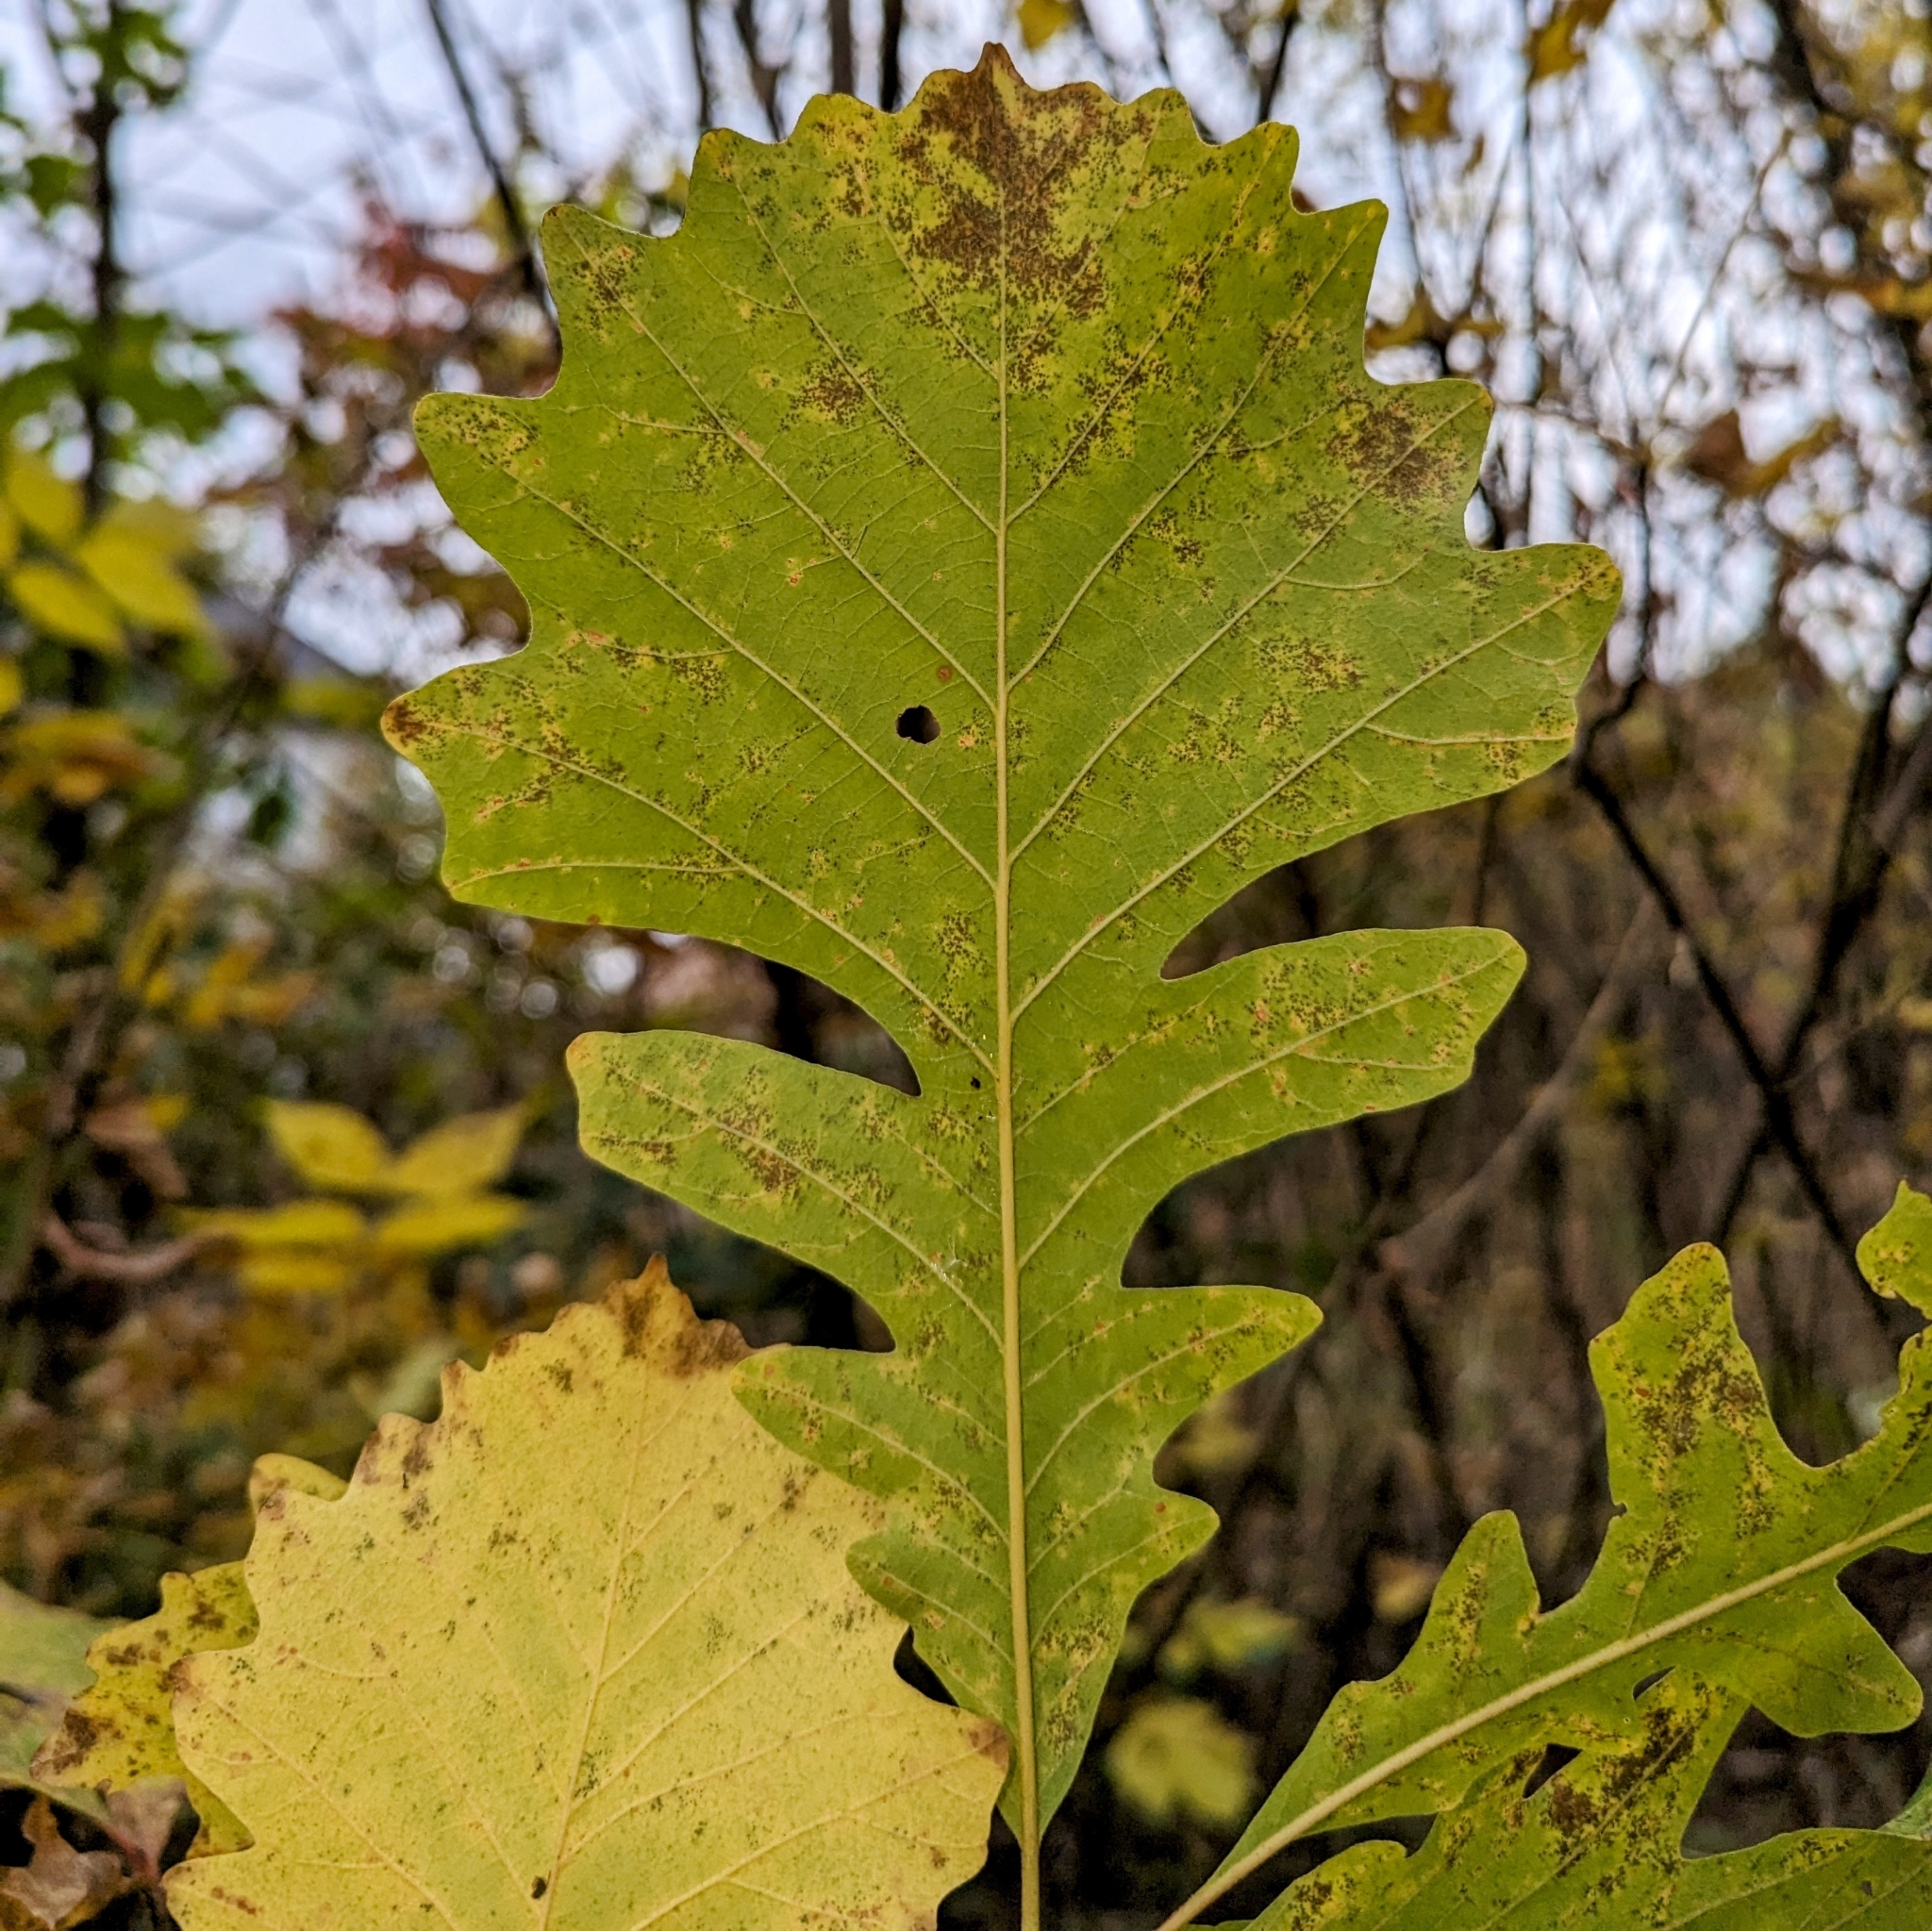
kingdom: Plantae
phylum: Tracheophyta
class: Magnoliopsida
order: Fagales
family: Fagaceae
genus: Quercus
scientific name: Quercus macrocarpa
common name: Bur oak
